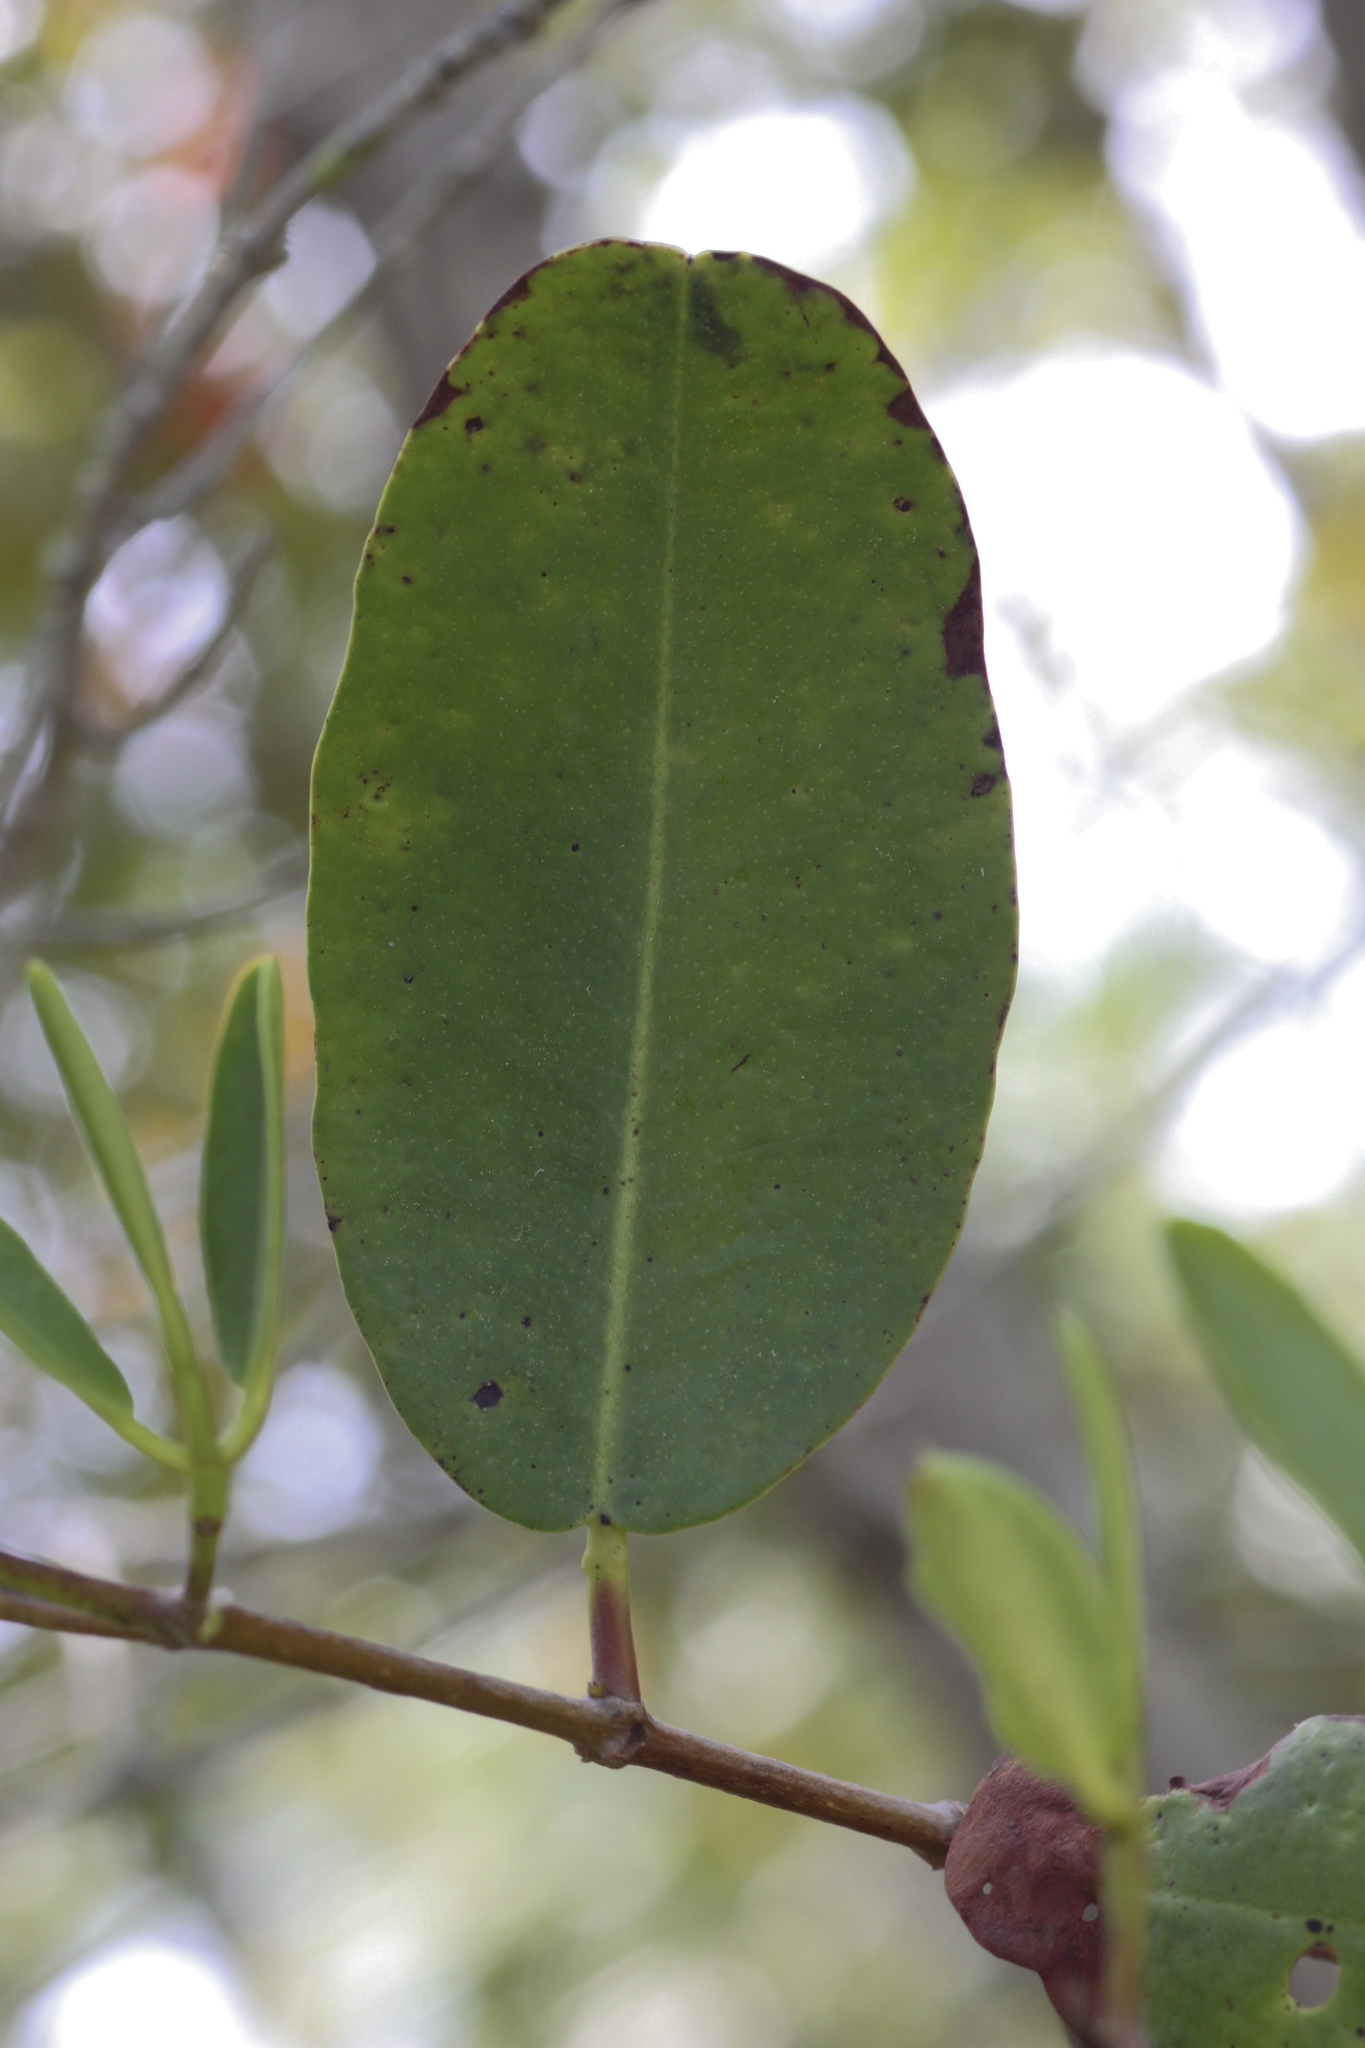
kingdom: Plantae
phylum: Tracheophyta
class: Magnoliopsida
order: Myrtales
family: Combretaceae
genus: Laguncularia
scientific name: Laguncularia racemosa
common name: White mangrove
